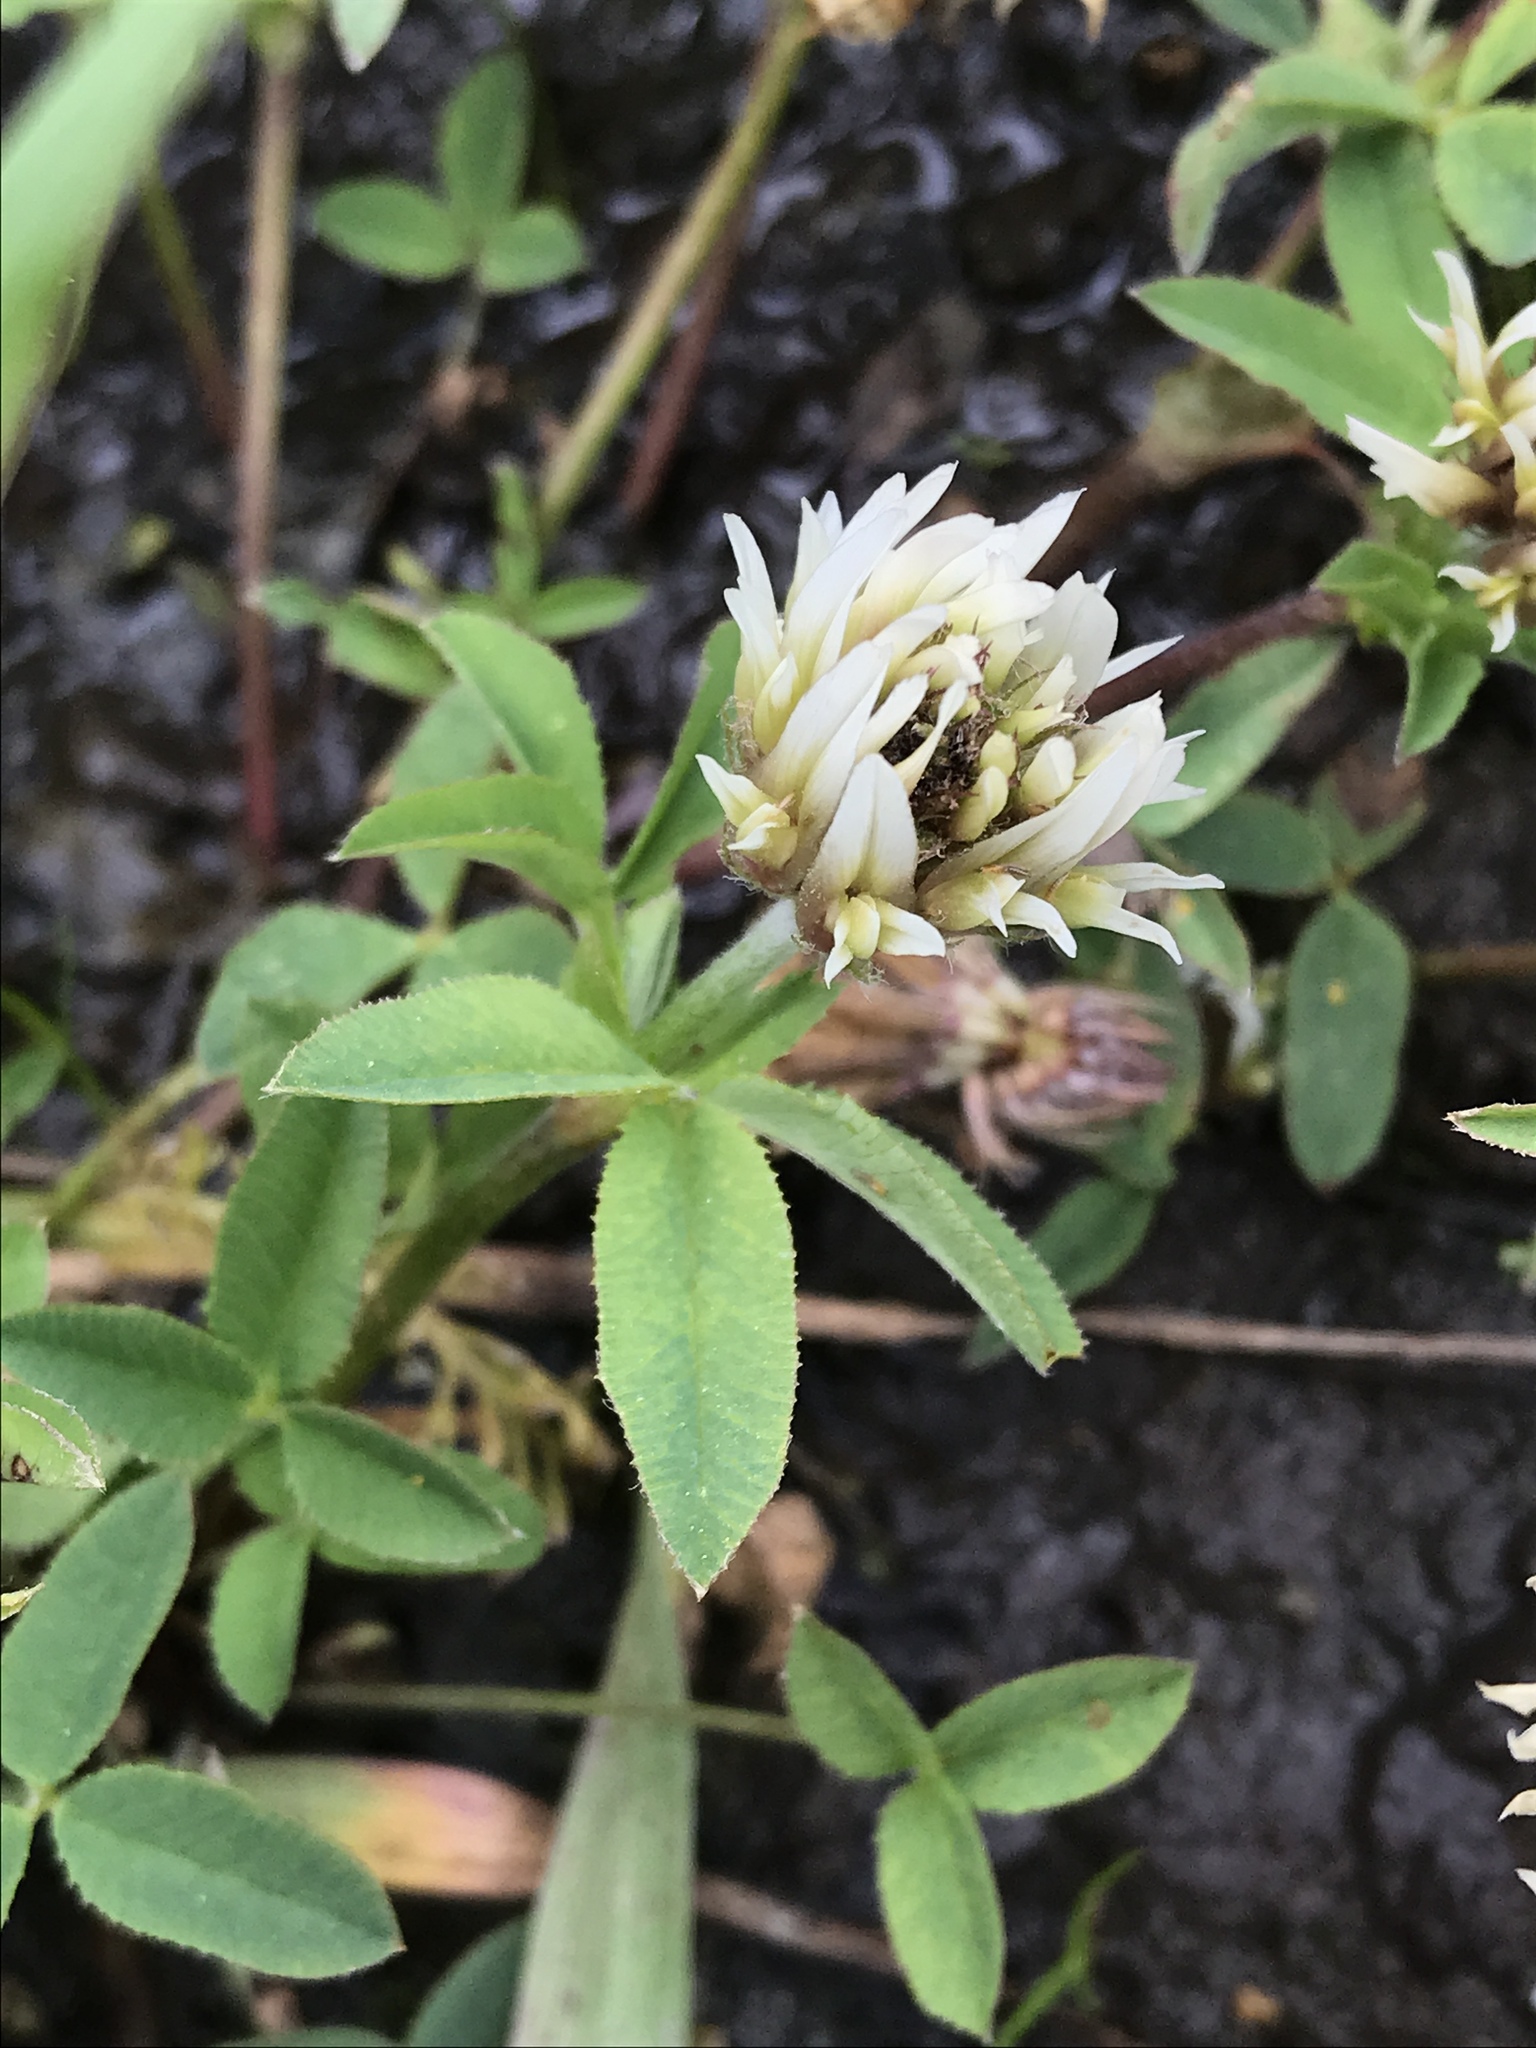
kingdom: Plantae
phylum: Tracheophyta
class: Magnoliopsida
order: Fabales
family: Fabaceae
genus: Trifolium
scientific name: Trifolium longipes
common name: Long-stalk clover
